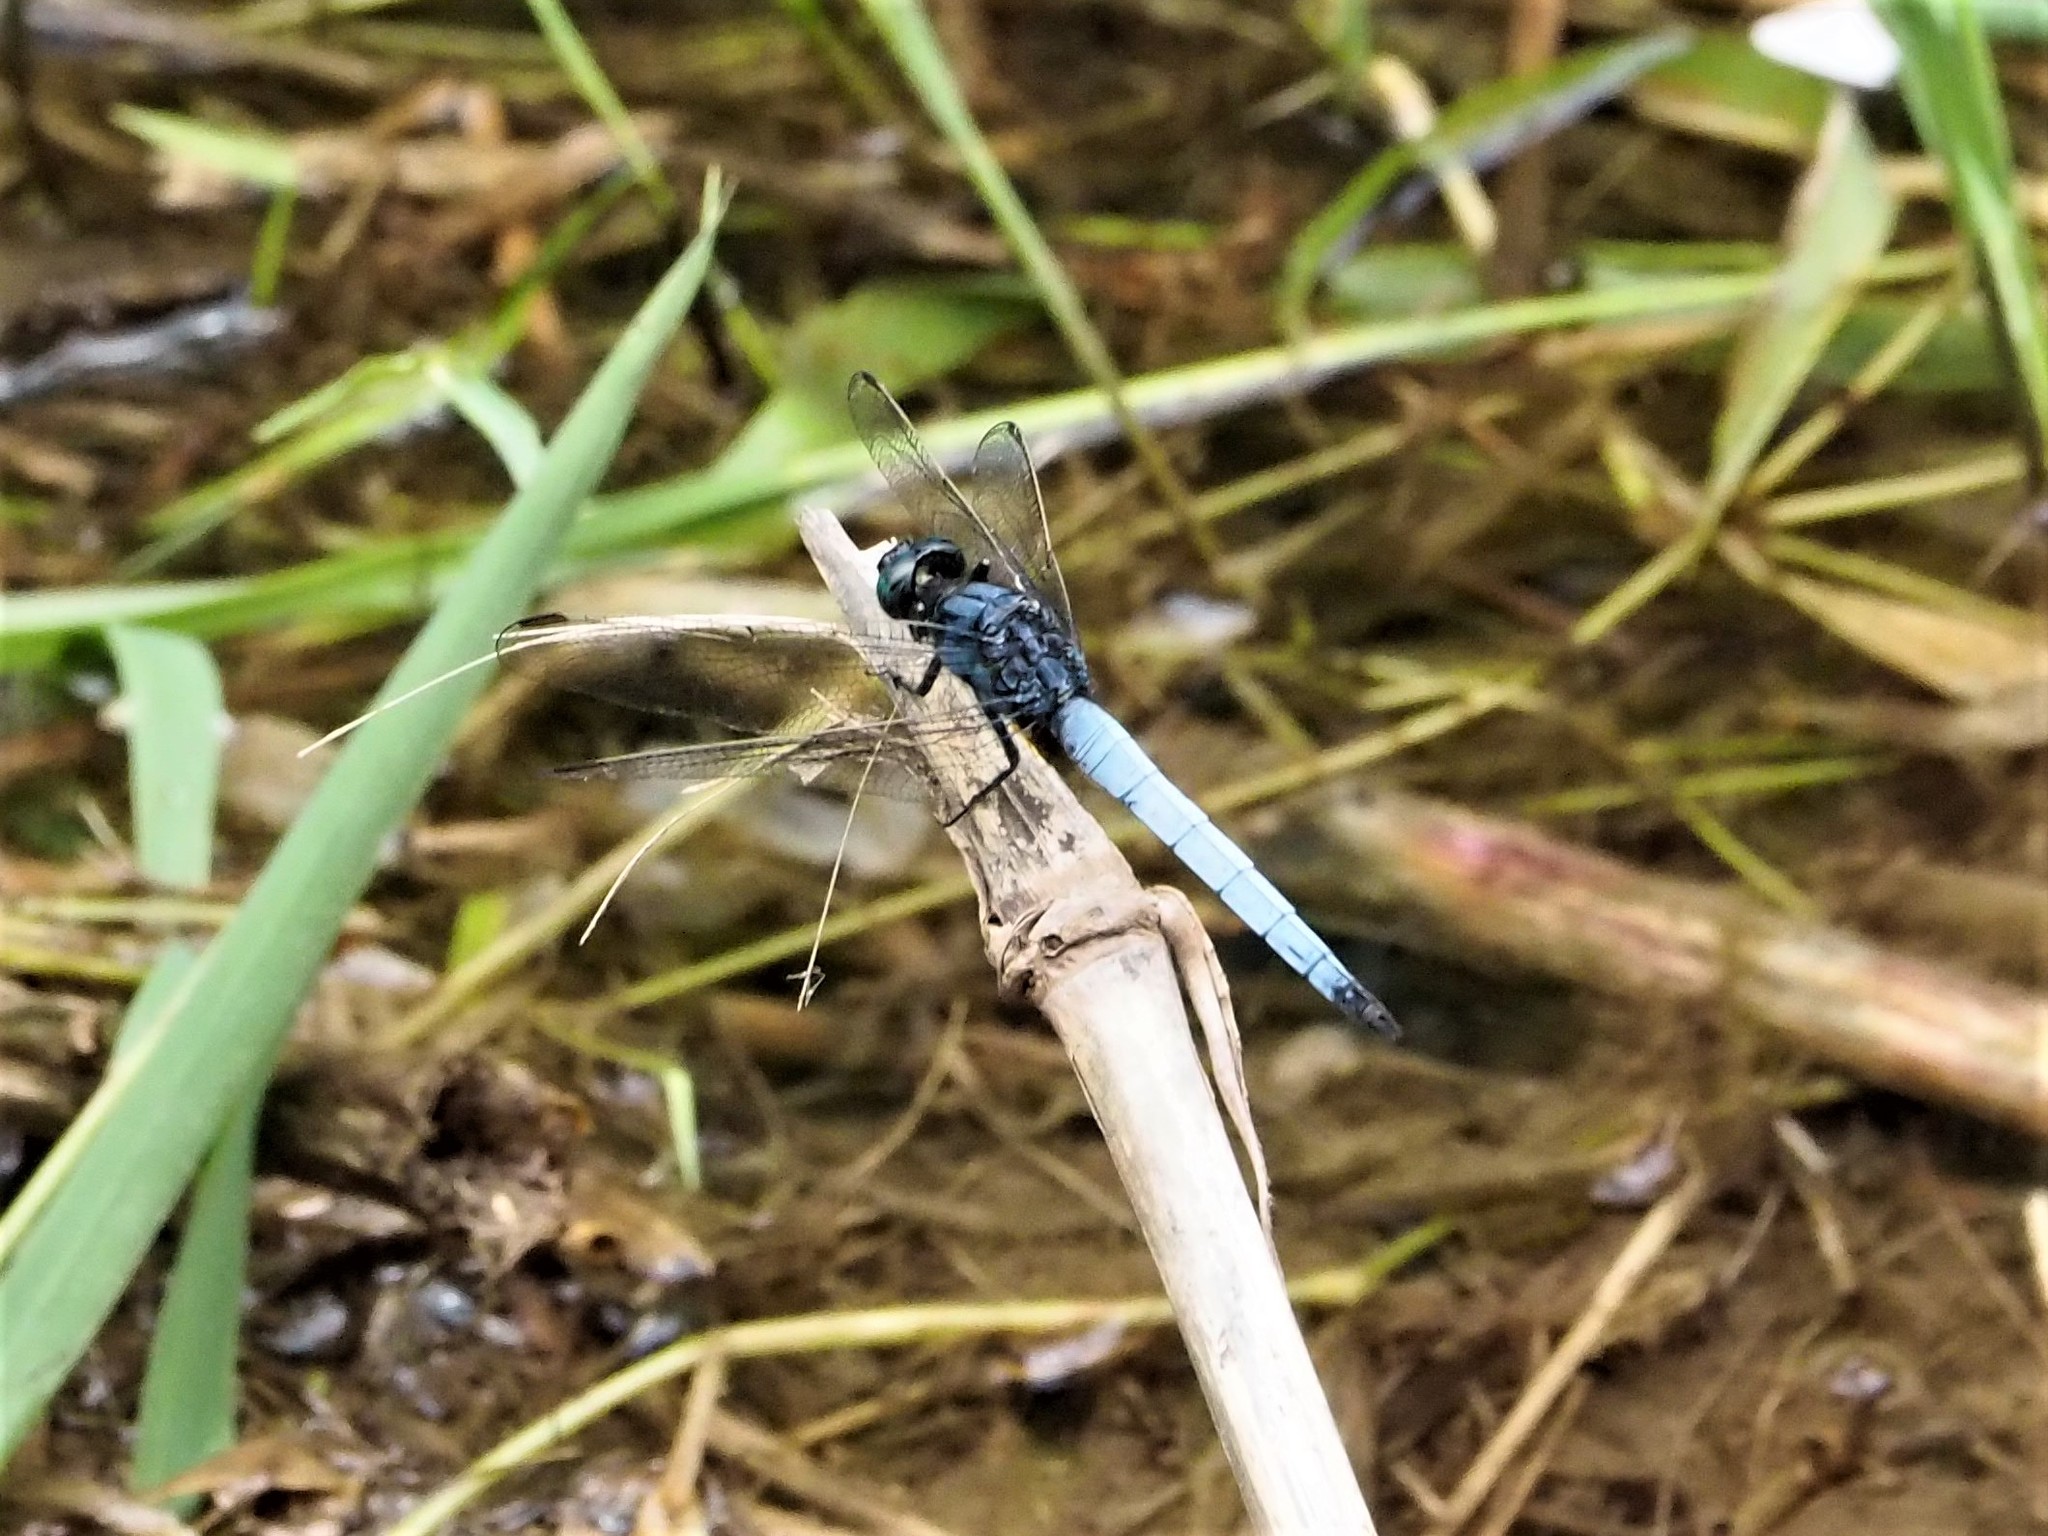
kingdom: Animalia
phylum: Arthropoda
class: Insecta
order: Odonata
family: Libellulidae
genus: Orthetrum
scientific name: Orthetrum glaucum
